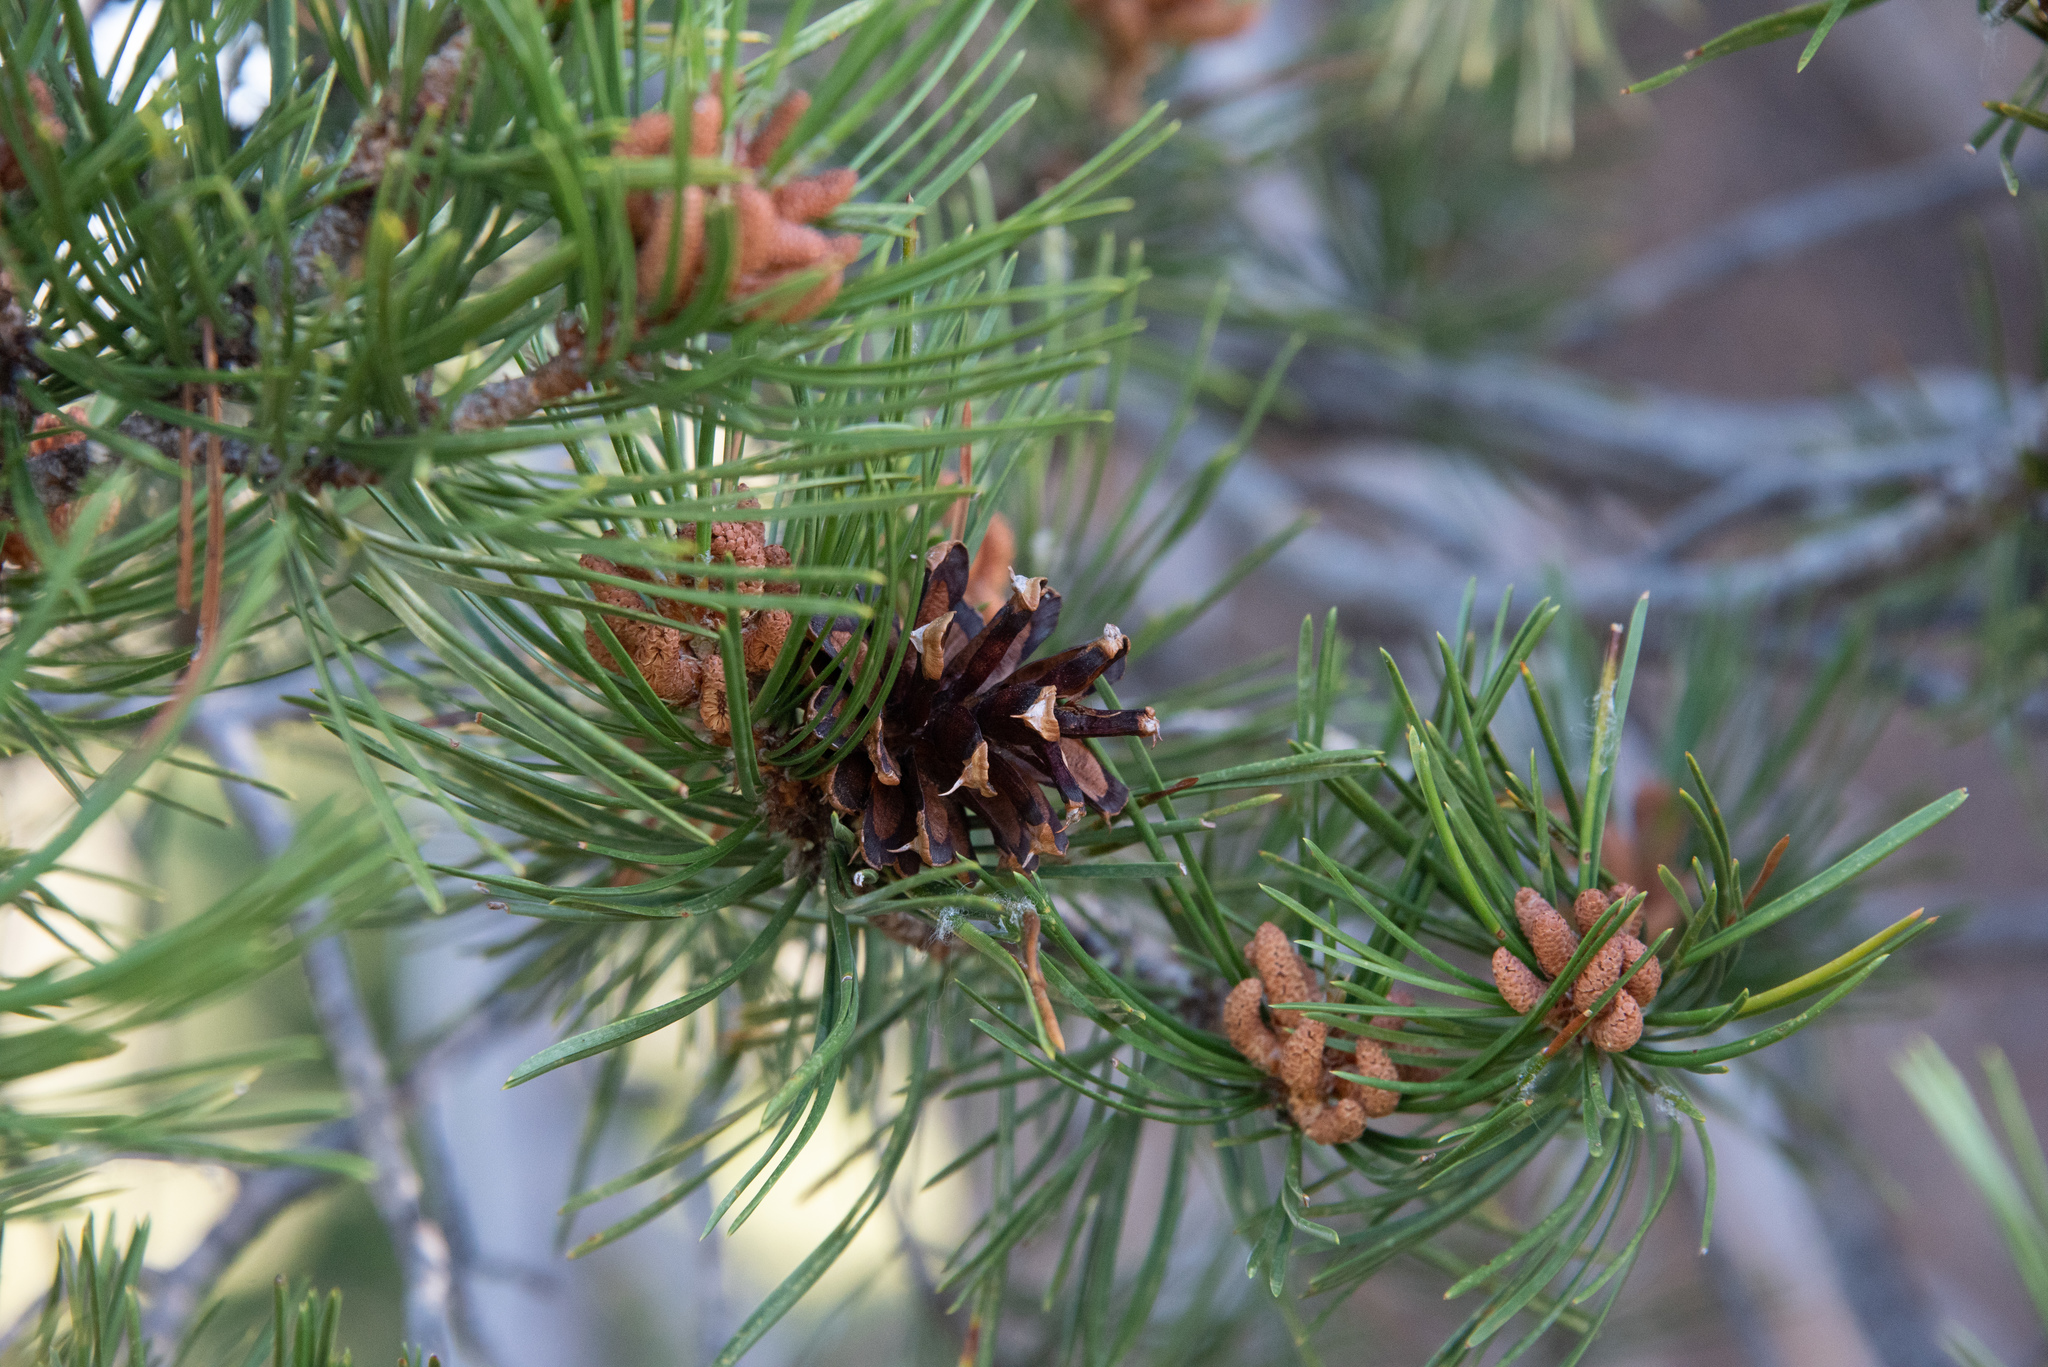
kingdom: Plantae
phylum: Tracheophyta
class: Pinopsida
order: Pinales
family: Pinaceae
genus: Pinus
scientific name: Pinus contorta
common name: Lodgepole pine
